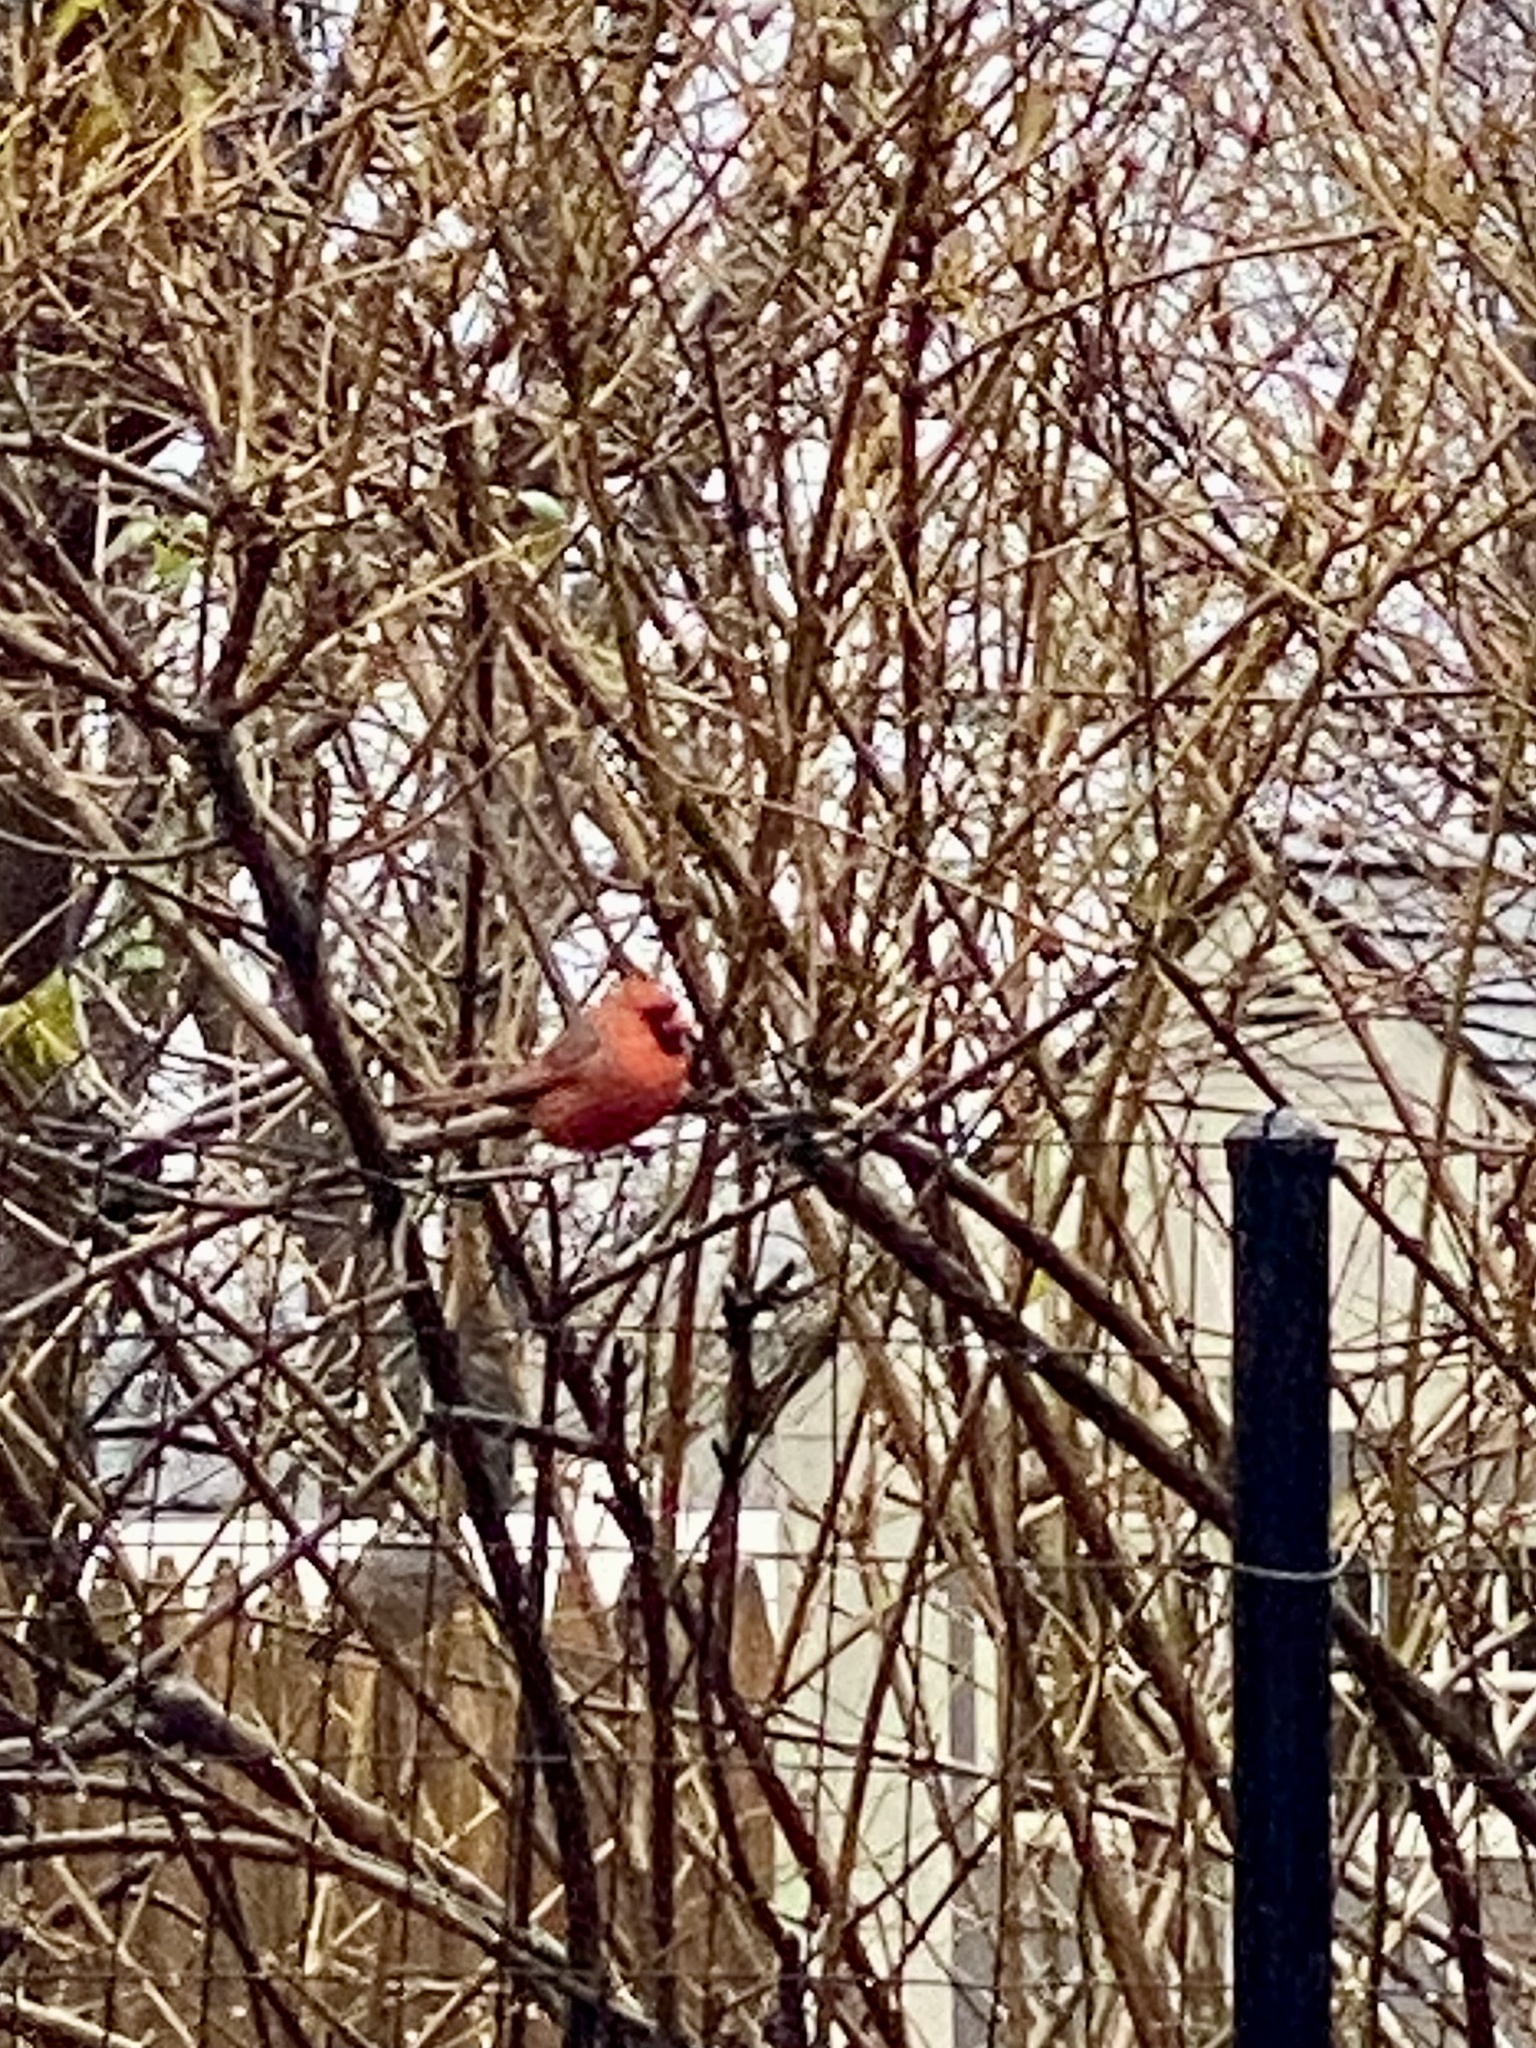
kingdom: Animalia
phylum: Chordata
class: Aves
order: Passeriformes
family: Cardinalidae
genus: Cardinalis
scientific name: Cardinalis cardinalis
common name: Northern cardinal
